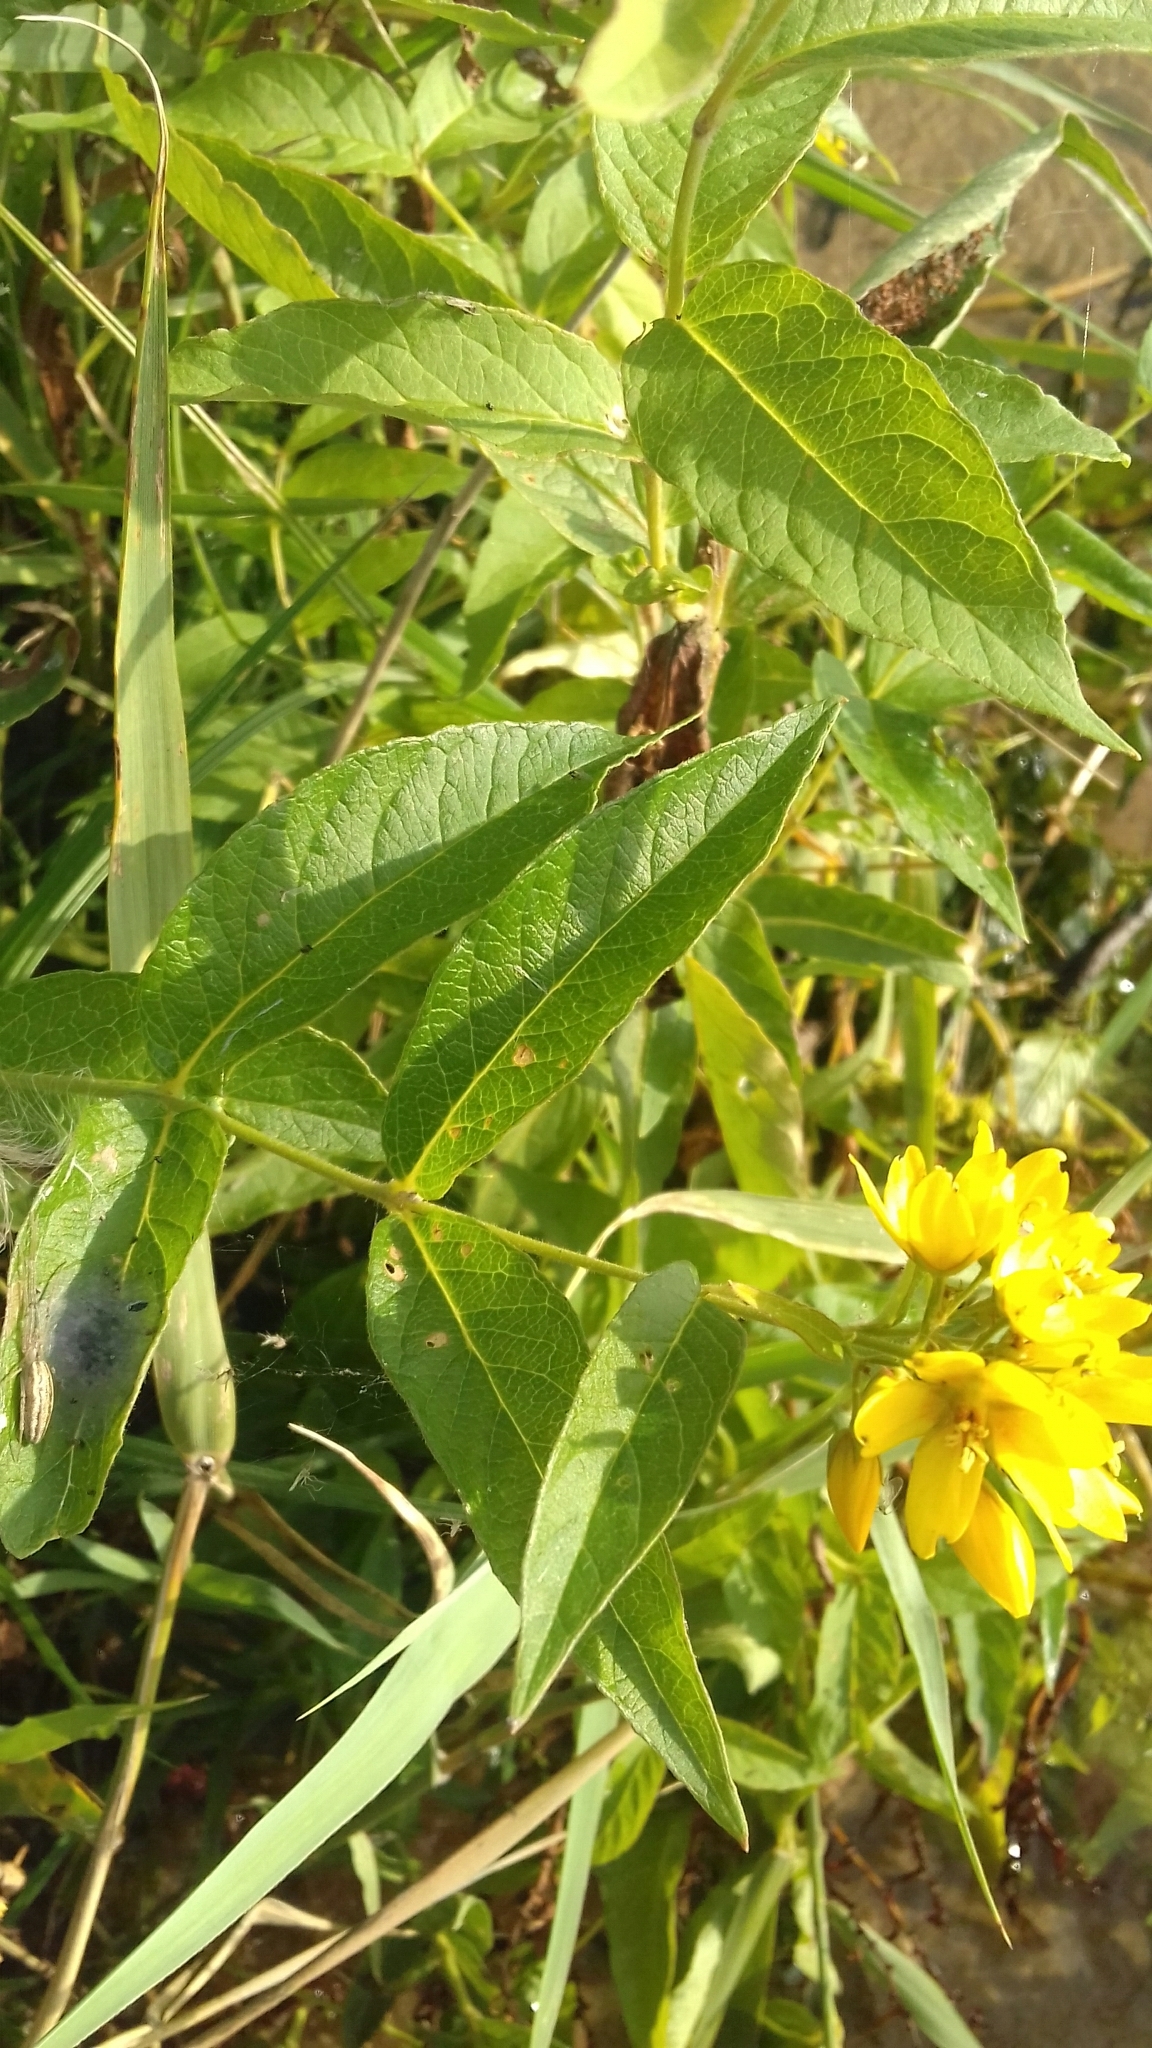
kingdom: Plantae
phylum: Tracheophyta
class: Magnoliopsida
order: Ericales
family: Primulaceae
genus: Lysimachia
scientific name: Lysimachia vulgaris
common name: Yellow loosestrife
